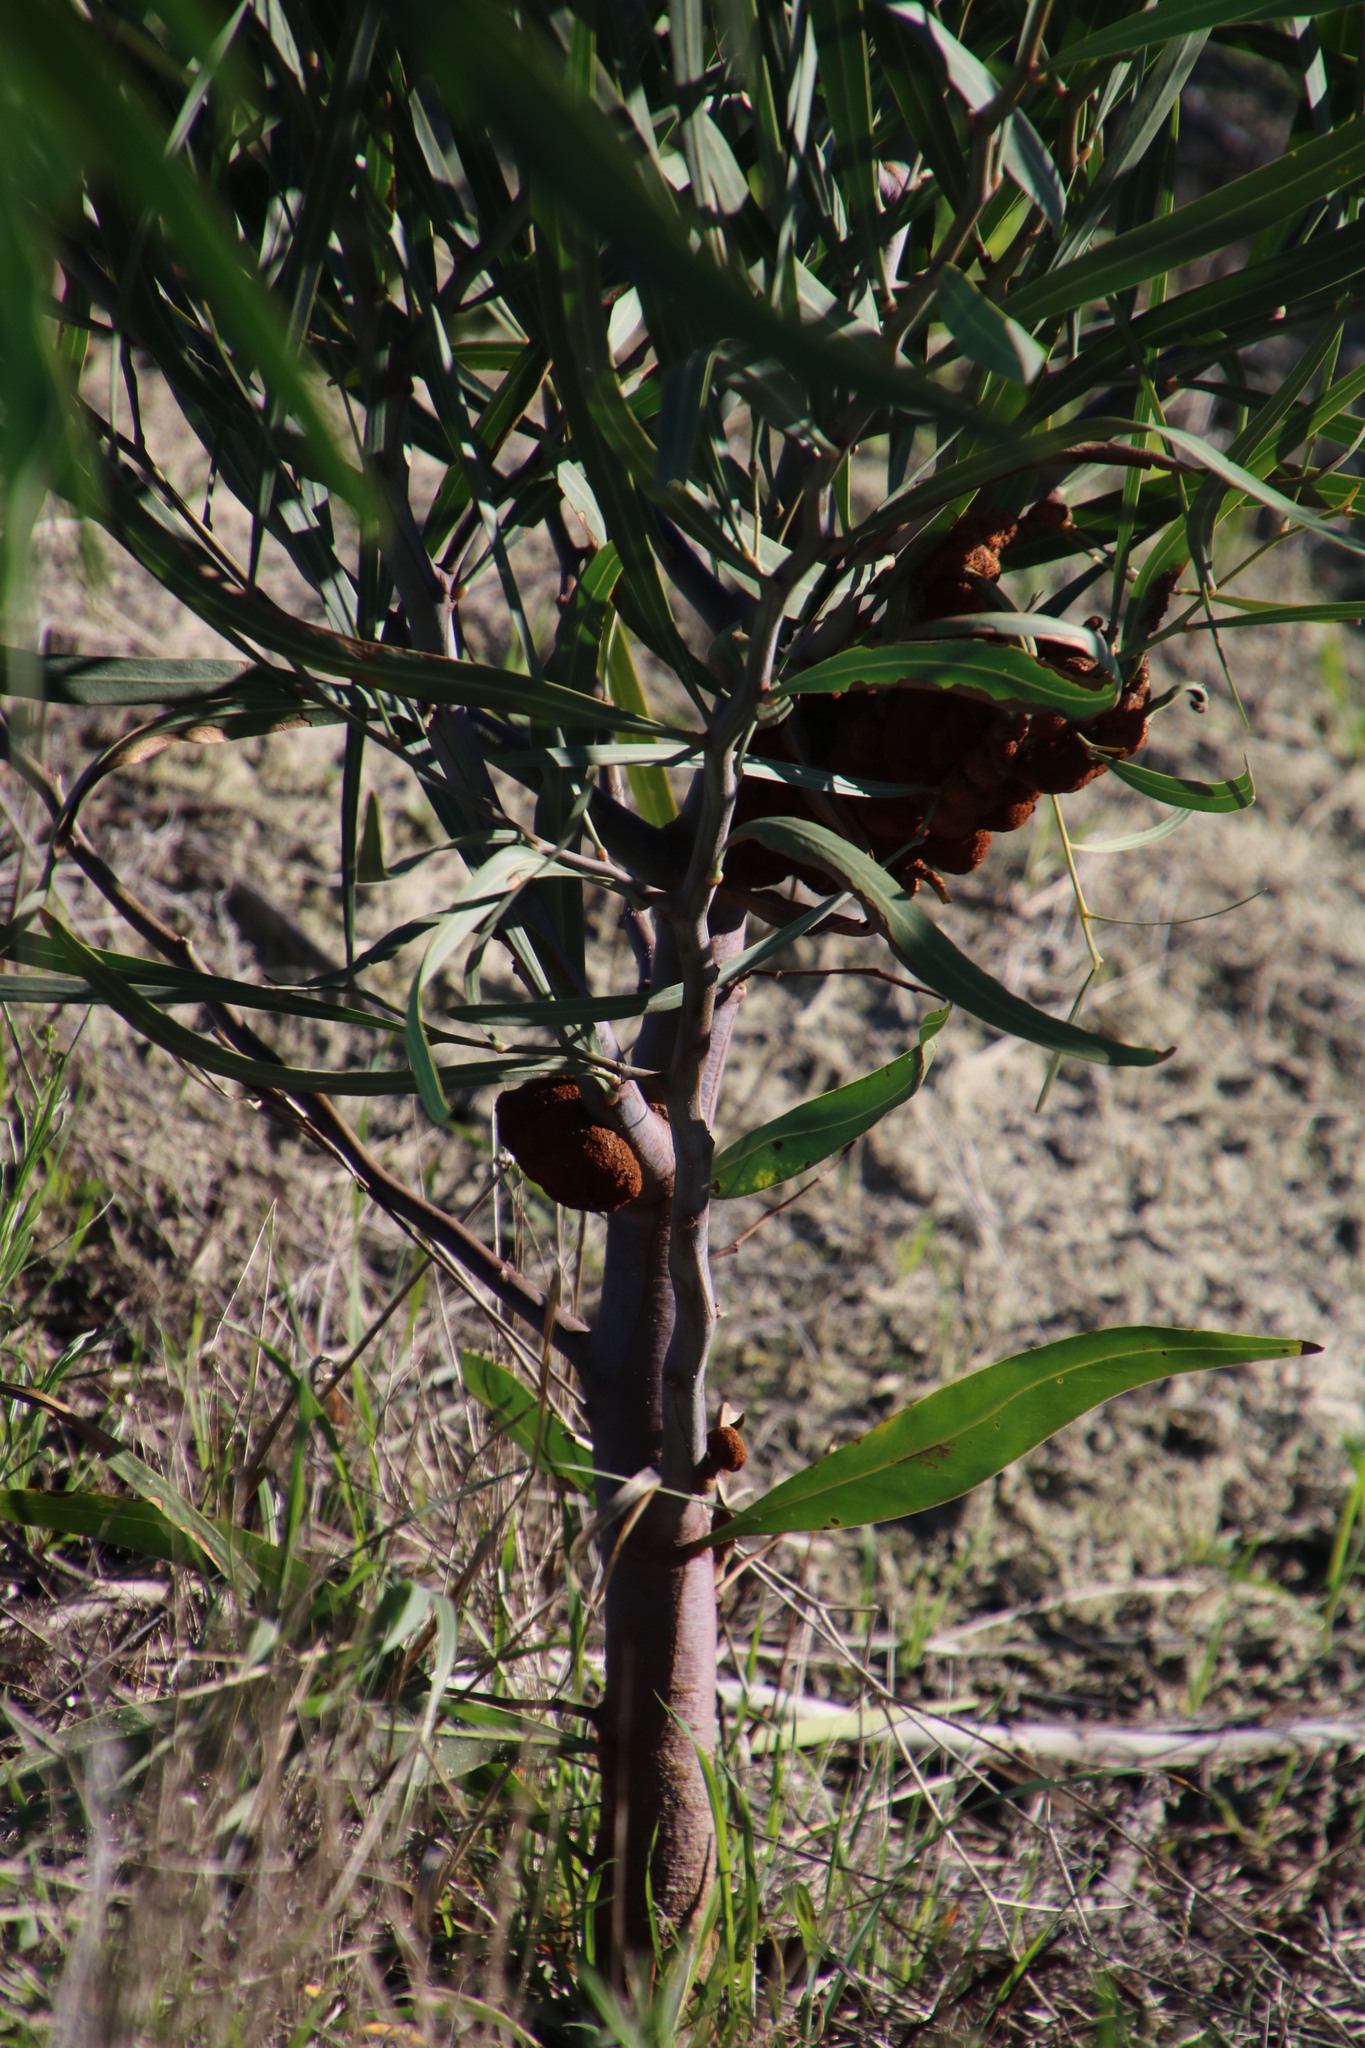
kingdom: Fungi
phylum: Basidiomycota
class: Pucciniomycetes
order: Pucciniales
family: Uromycladiaceae
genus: Uromycladium
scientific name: Uromycladium morrisii
